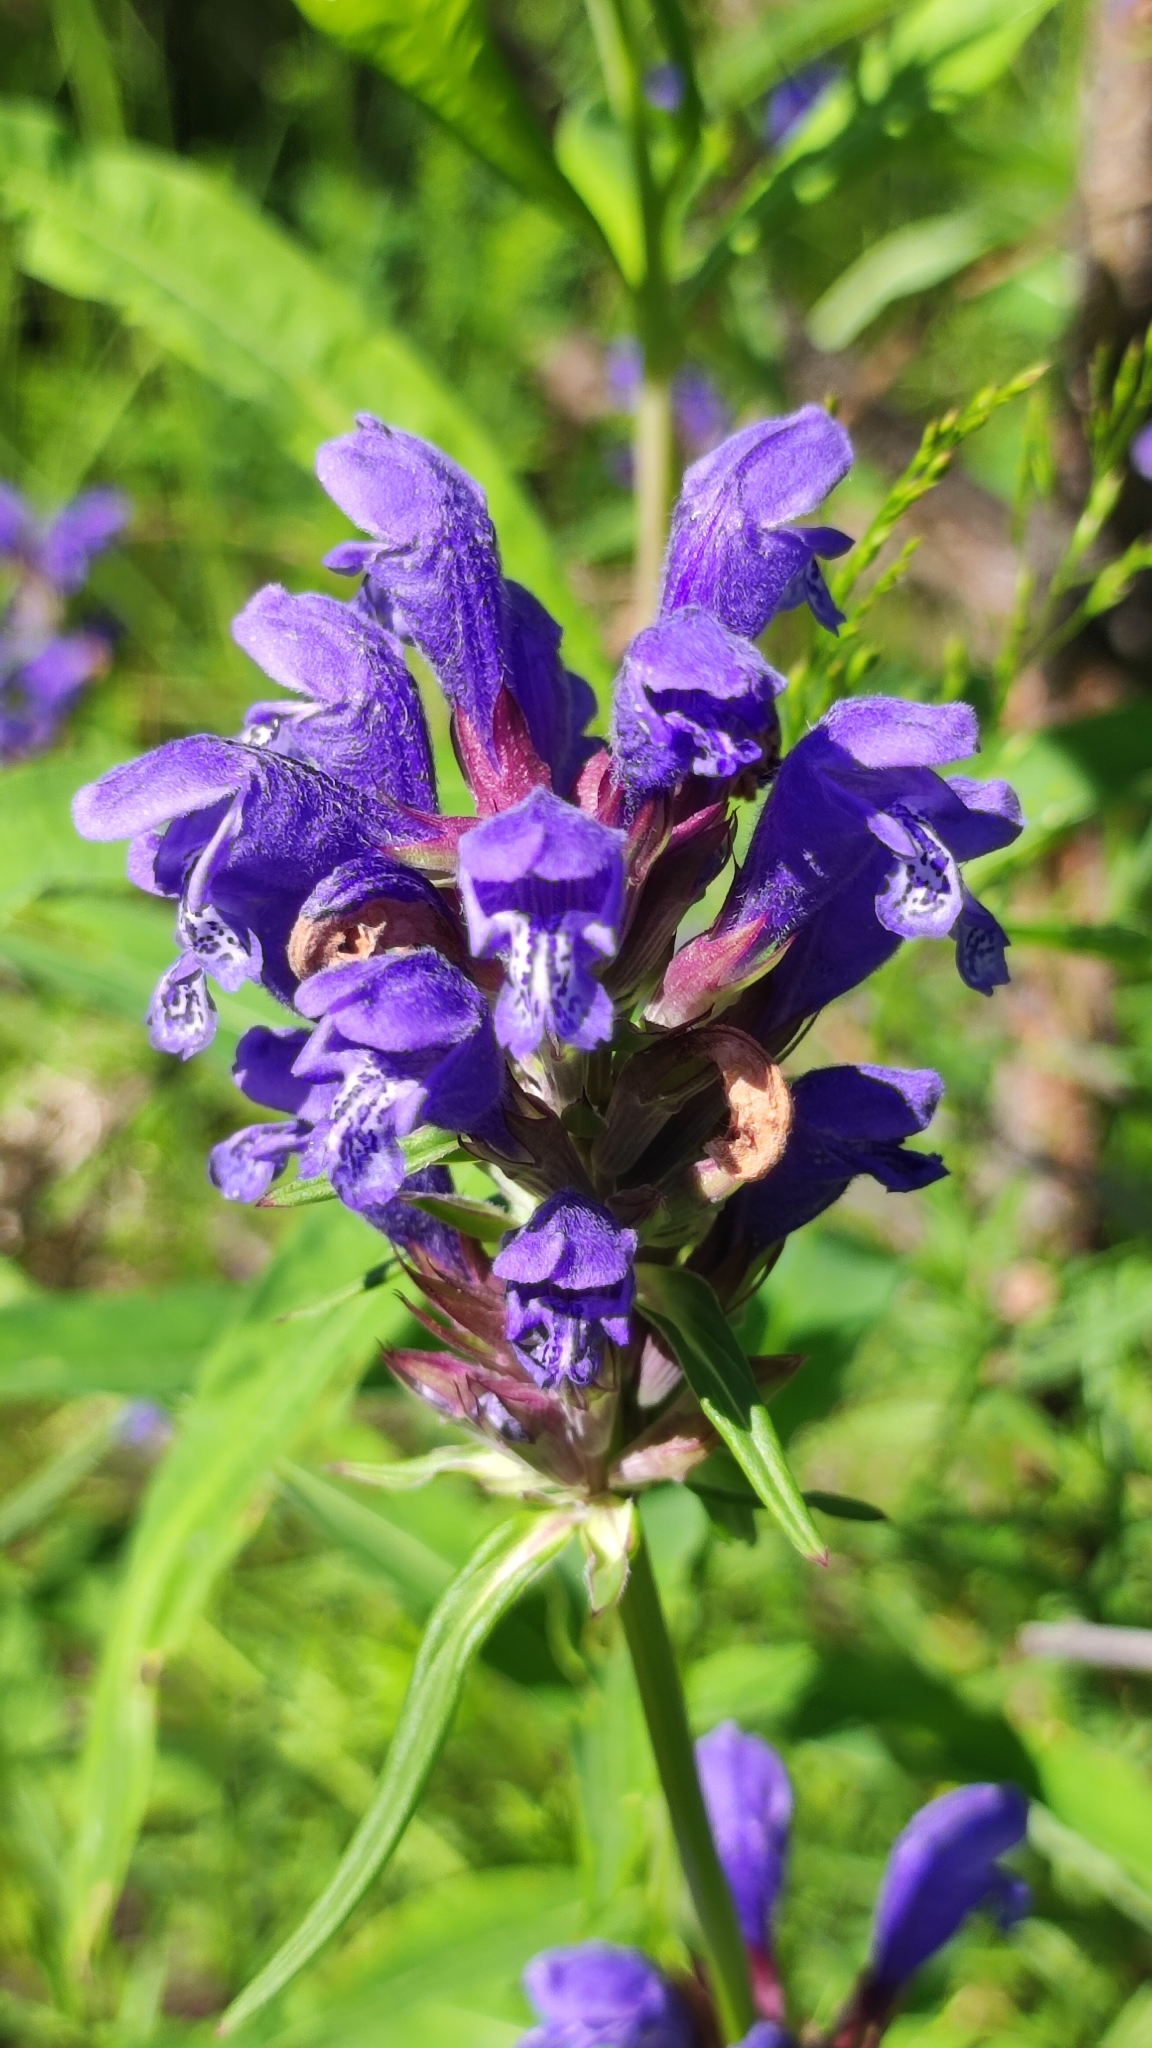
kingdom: Plantae
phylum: Tracheophyta
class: Magnoliopsida
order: Lamiales
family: Lamiaceae
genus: Dracocephalum
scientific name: Dracocephalum ruyschiana
